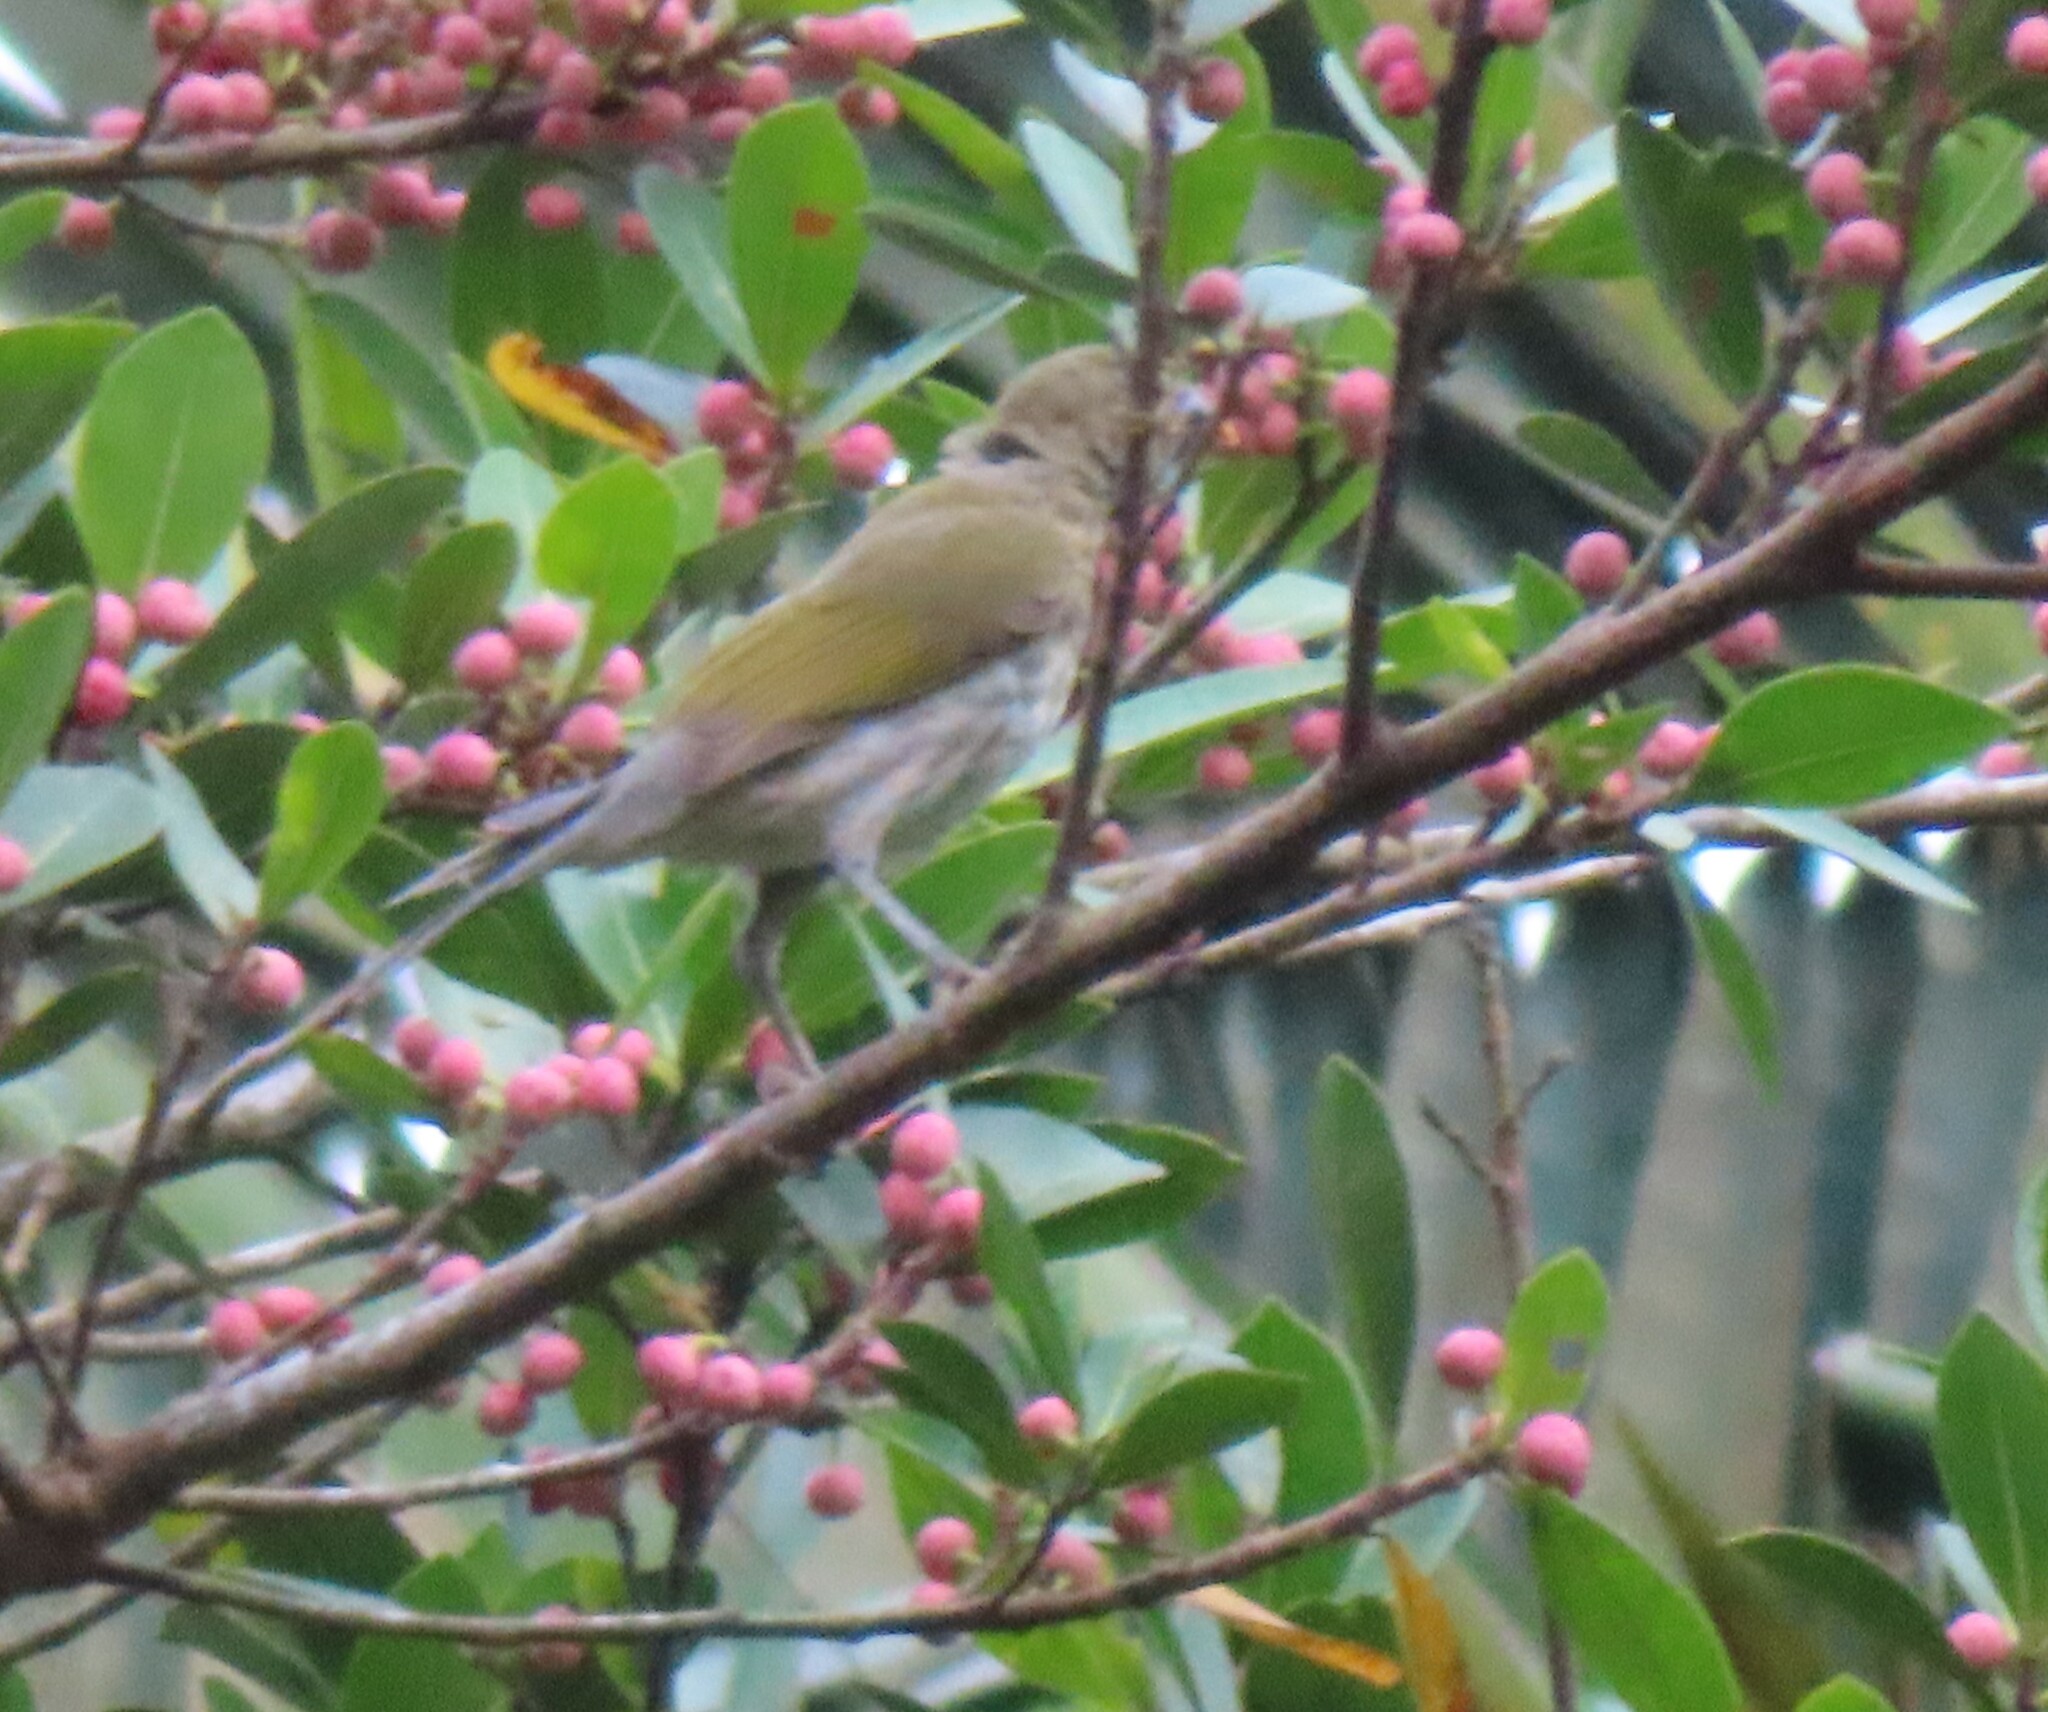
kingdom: Animalia
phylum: Chordata
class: Aves
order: Passeriformes
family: Thraupidae
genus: Saltator
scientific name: Saltator striatipectus
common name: Streaked saltator
